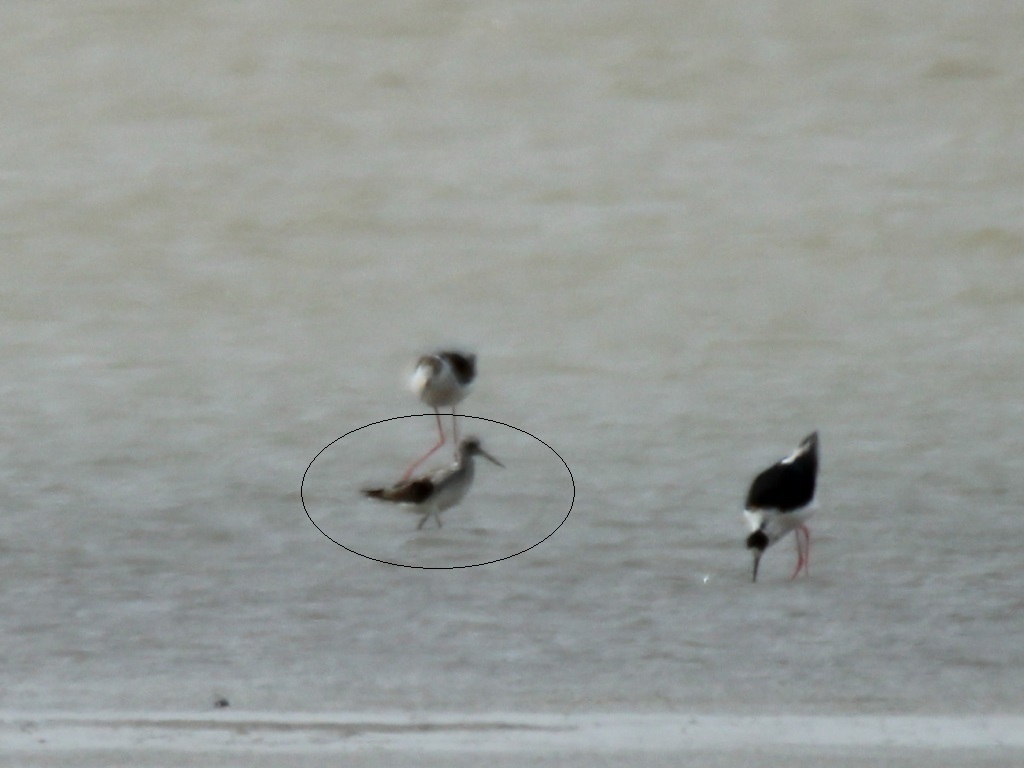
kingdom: Animalia
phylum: Chordata
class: Aves
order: Charadriiformes
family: Scolopacidae
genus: Tringa
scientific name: Tringa nebularia
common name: Common greenshank
